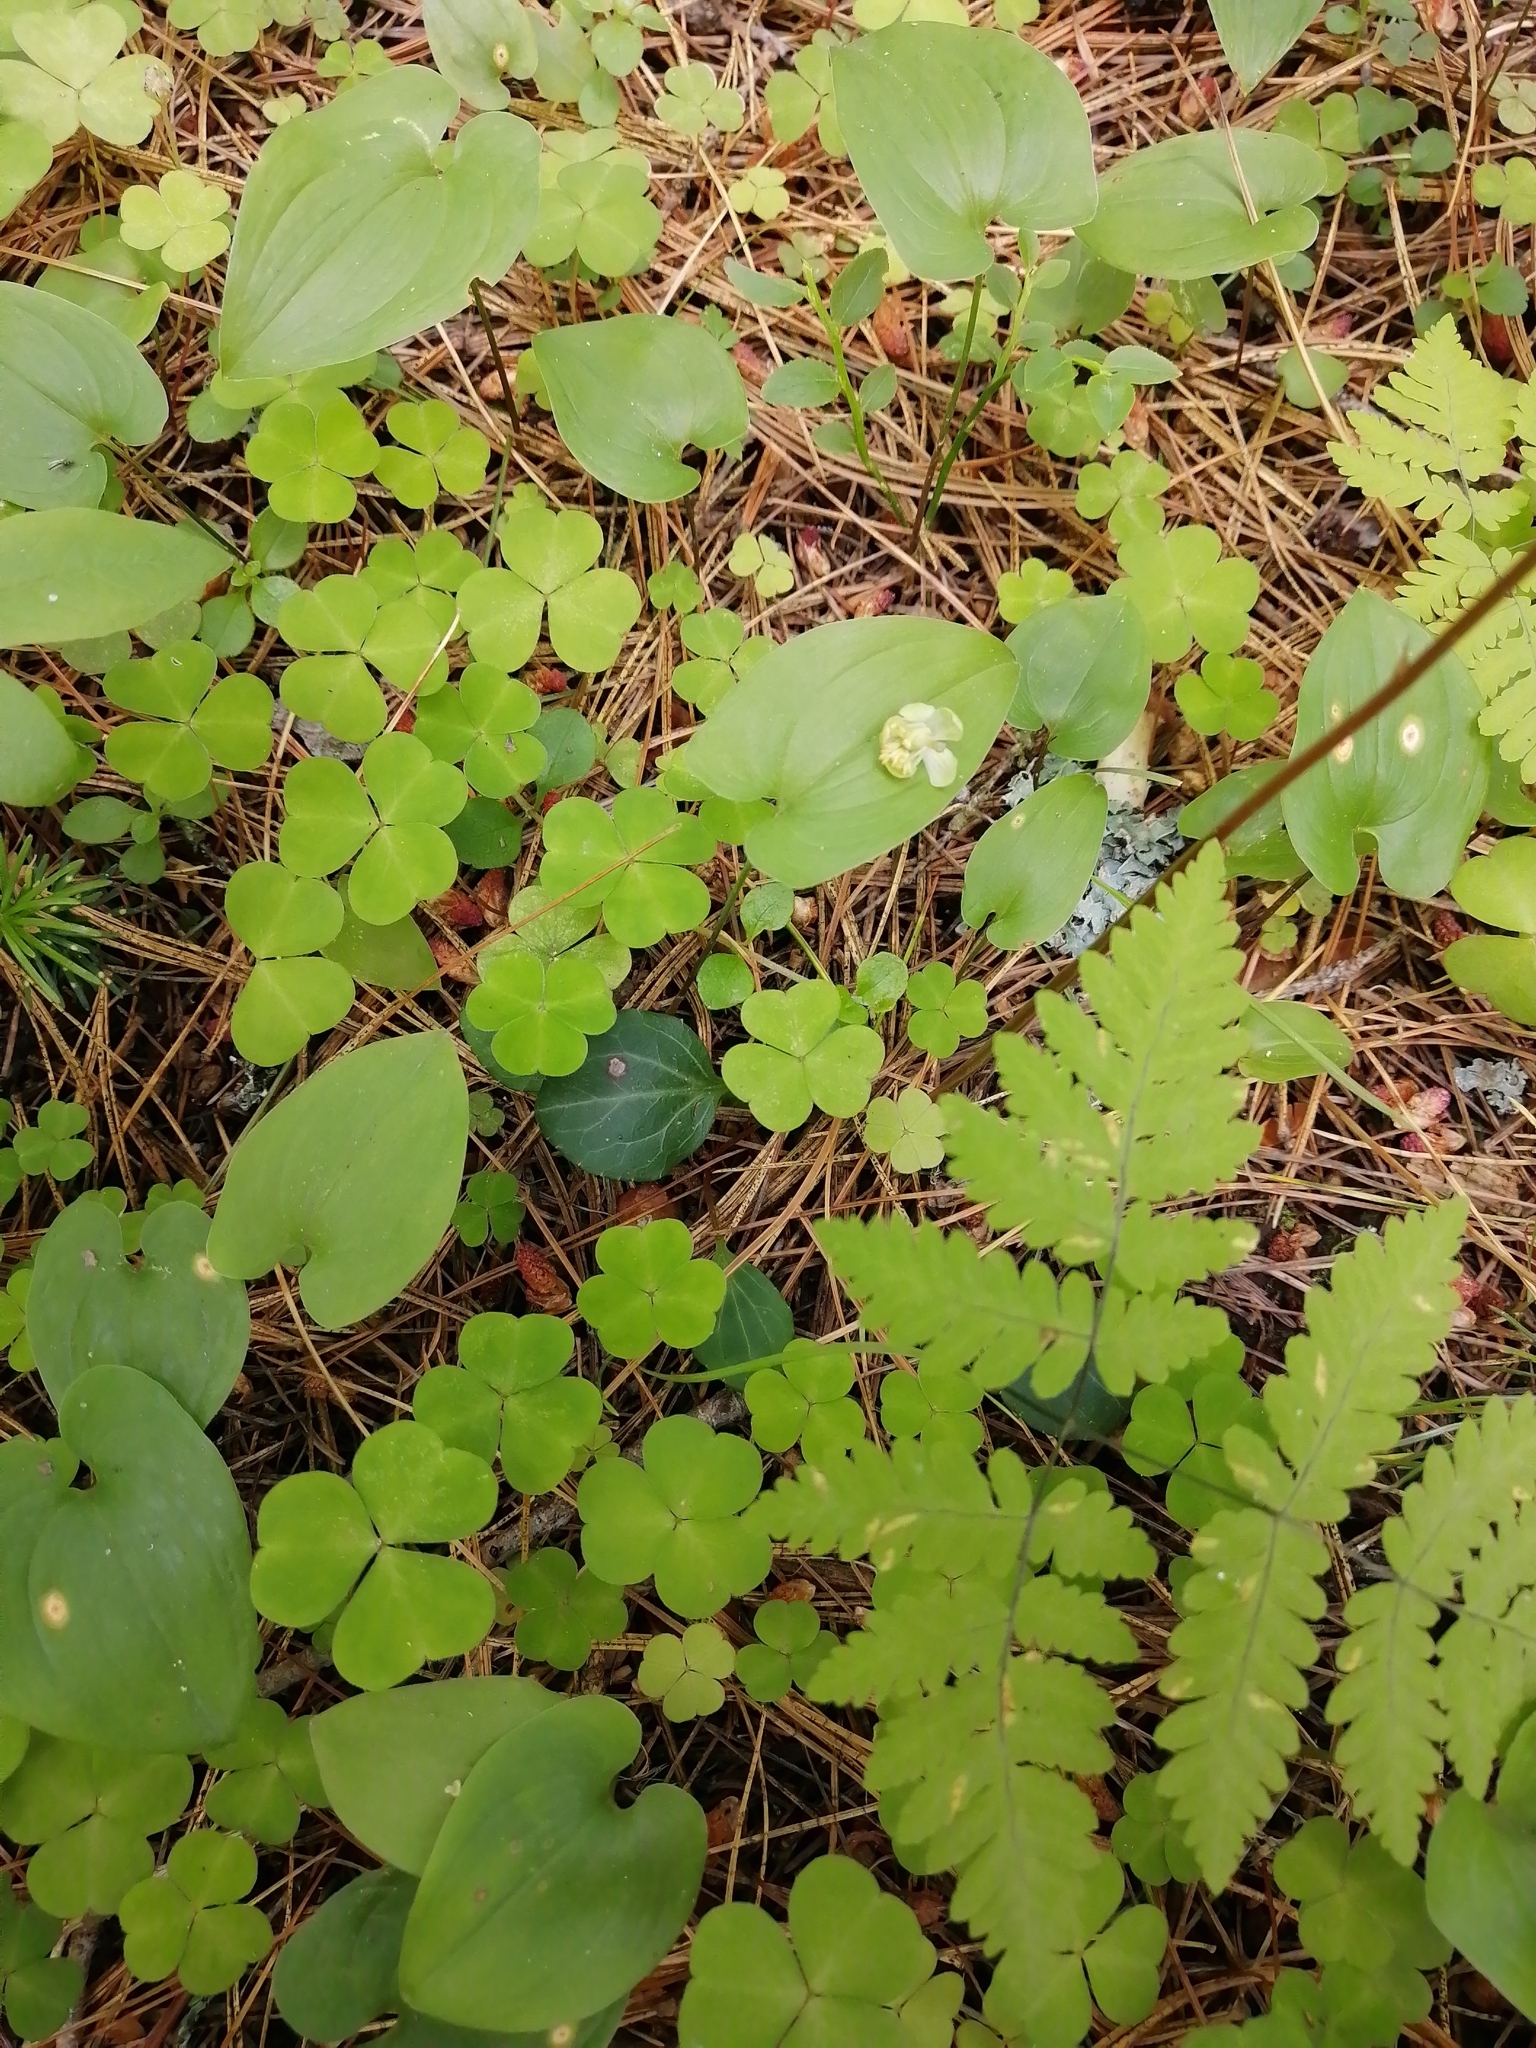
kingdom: Plantae
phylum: Tracheophyta
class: Magnoliopsida
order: Ericales
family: Ericaceae
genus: Pyrola
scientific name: Pyrola chlorantha
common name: Green wintergreen
